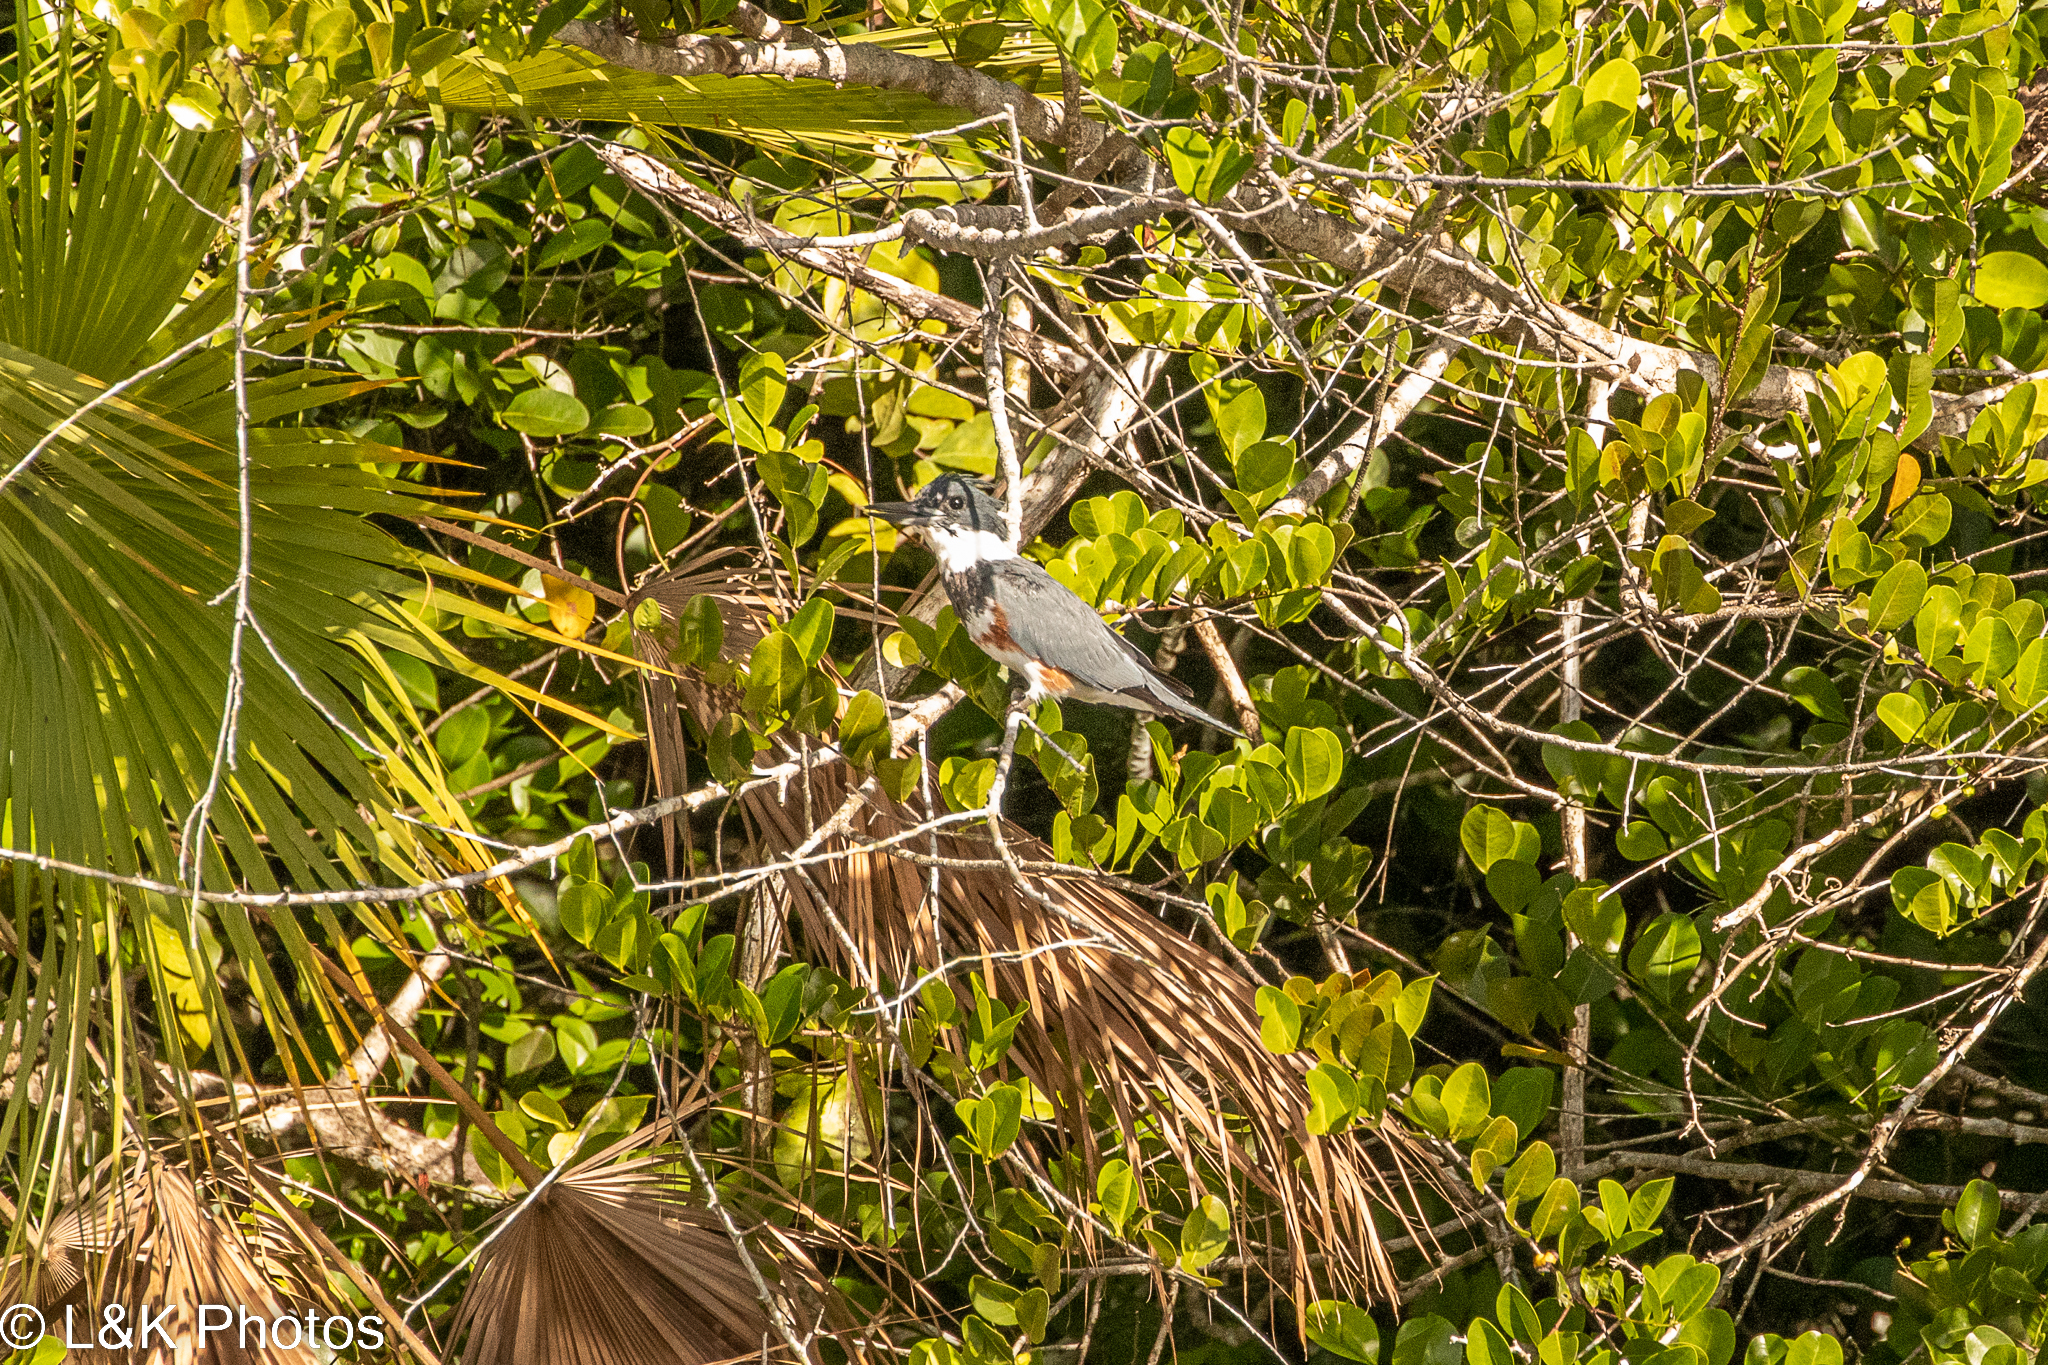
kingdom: Animalia
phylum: Chordata
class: Aves
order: Coraciiformes
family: Alcedinidae
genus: Megaceryle
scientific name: Megaceryle alcyon
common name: Belted kingfisher
